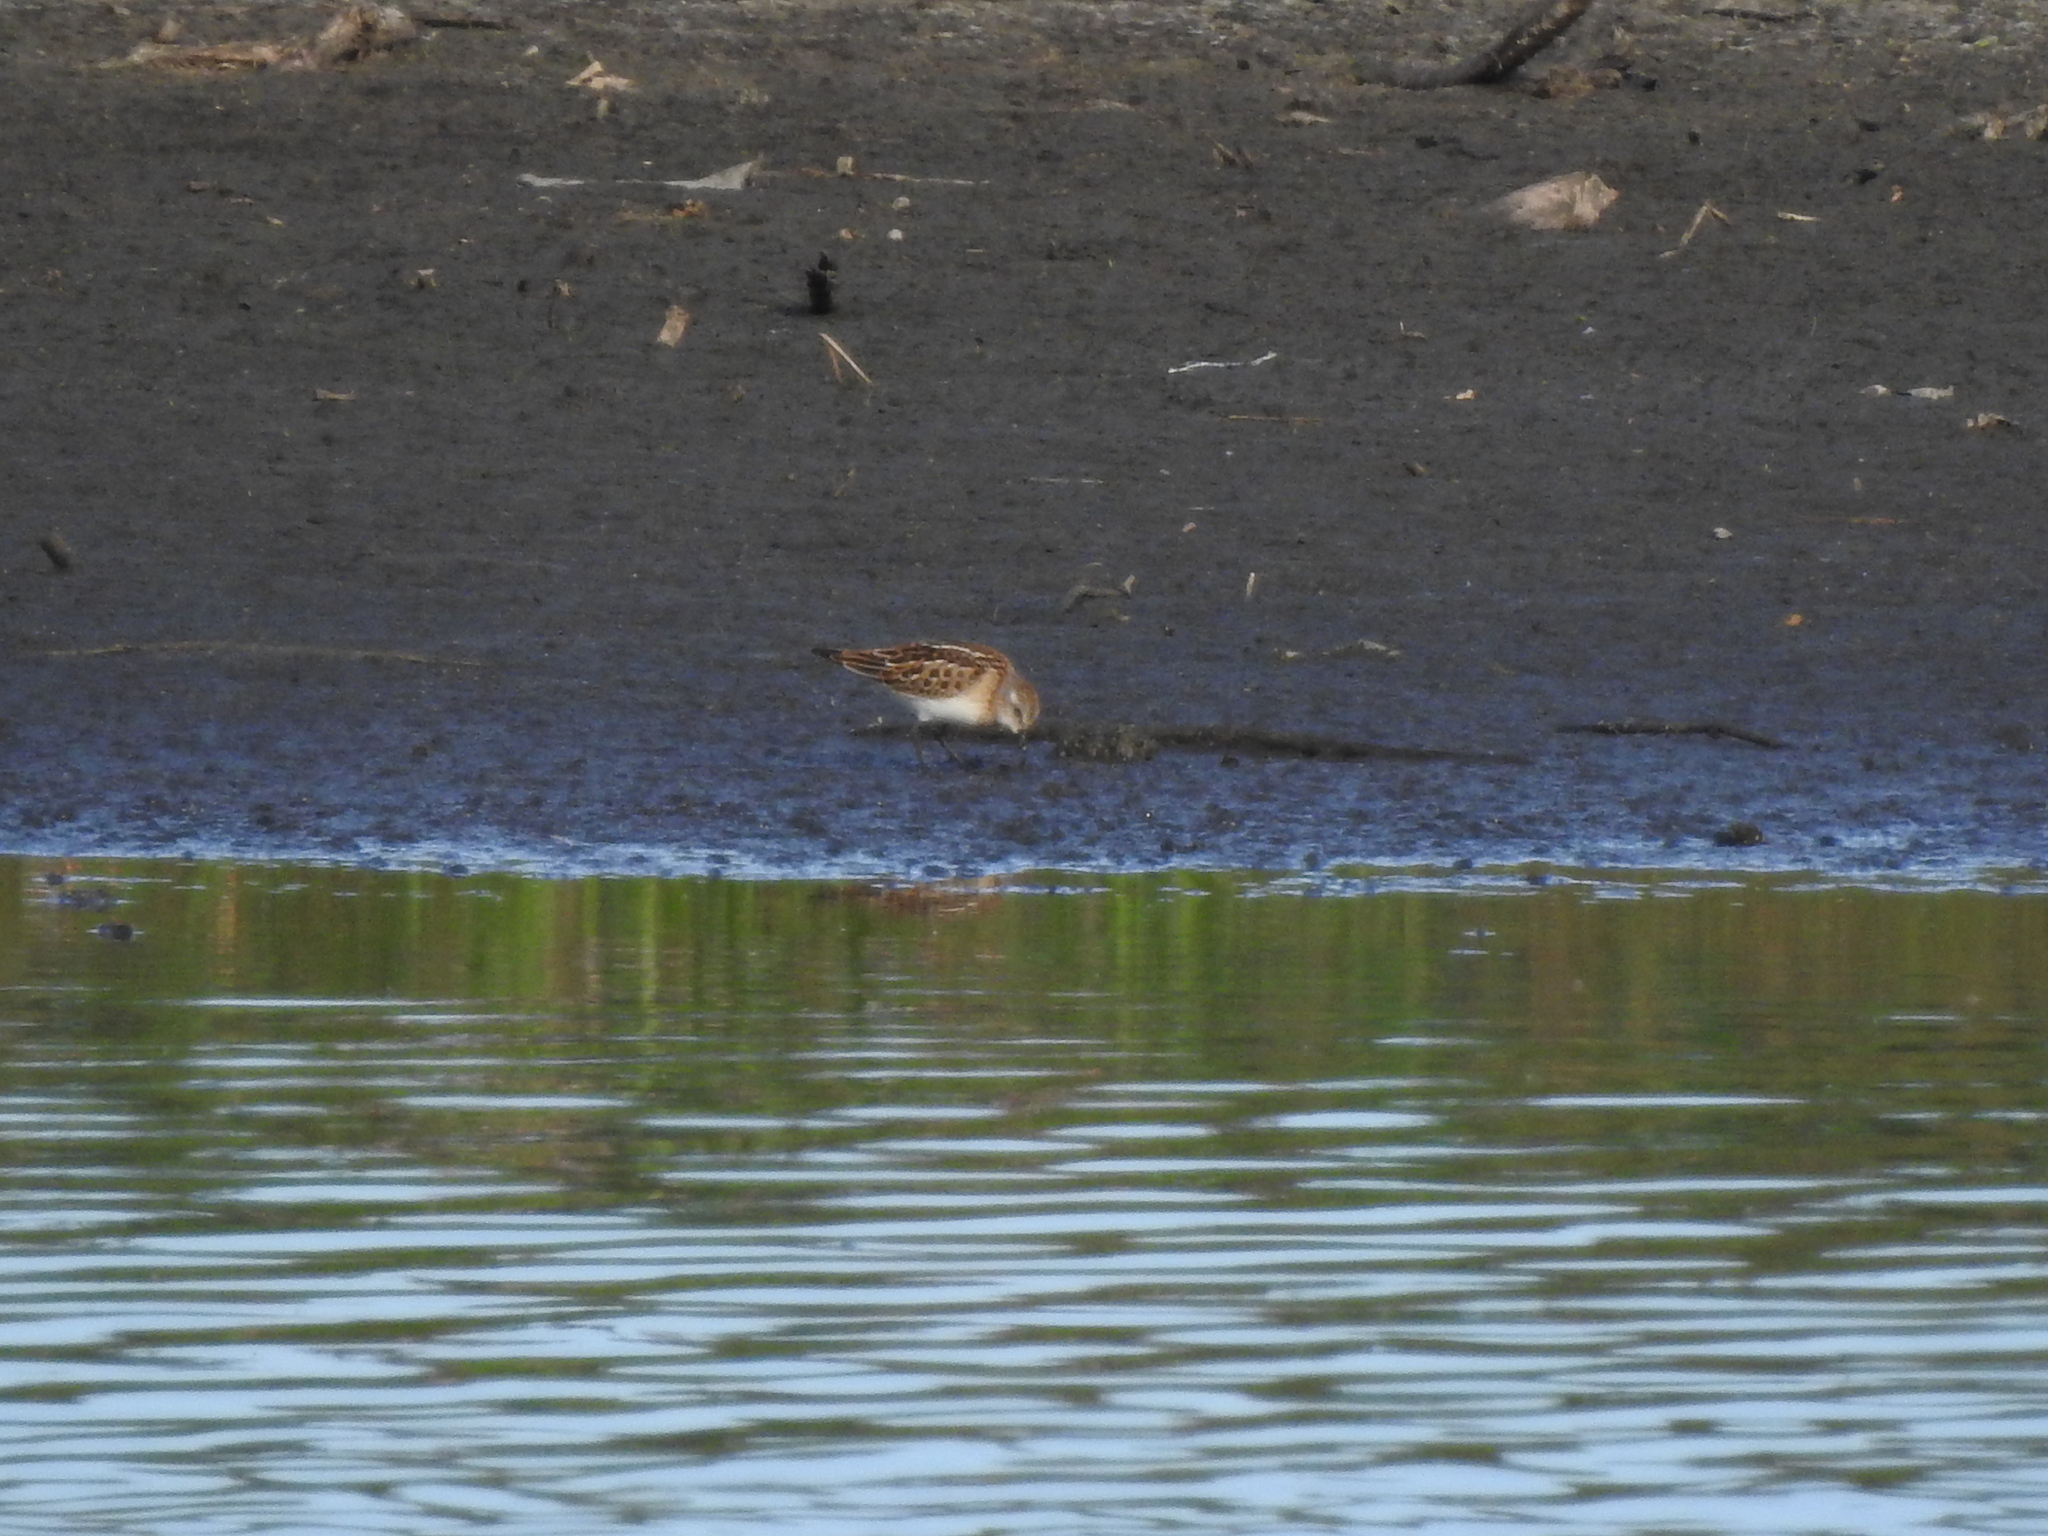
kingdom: Animalia
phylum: Chordata
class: Aves
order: Charadriiformes
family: Scolopacidae
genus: Calidris
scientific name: Calidris minuta
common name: Little stint
